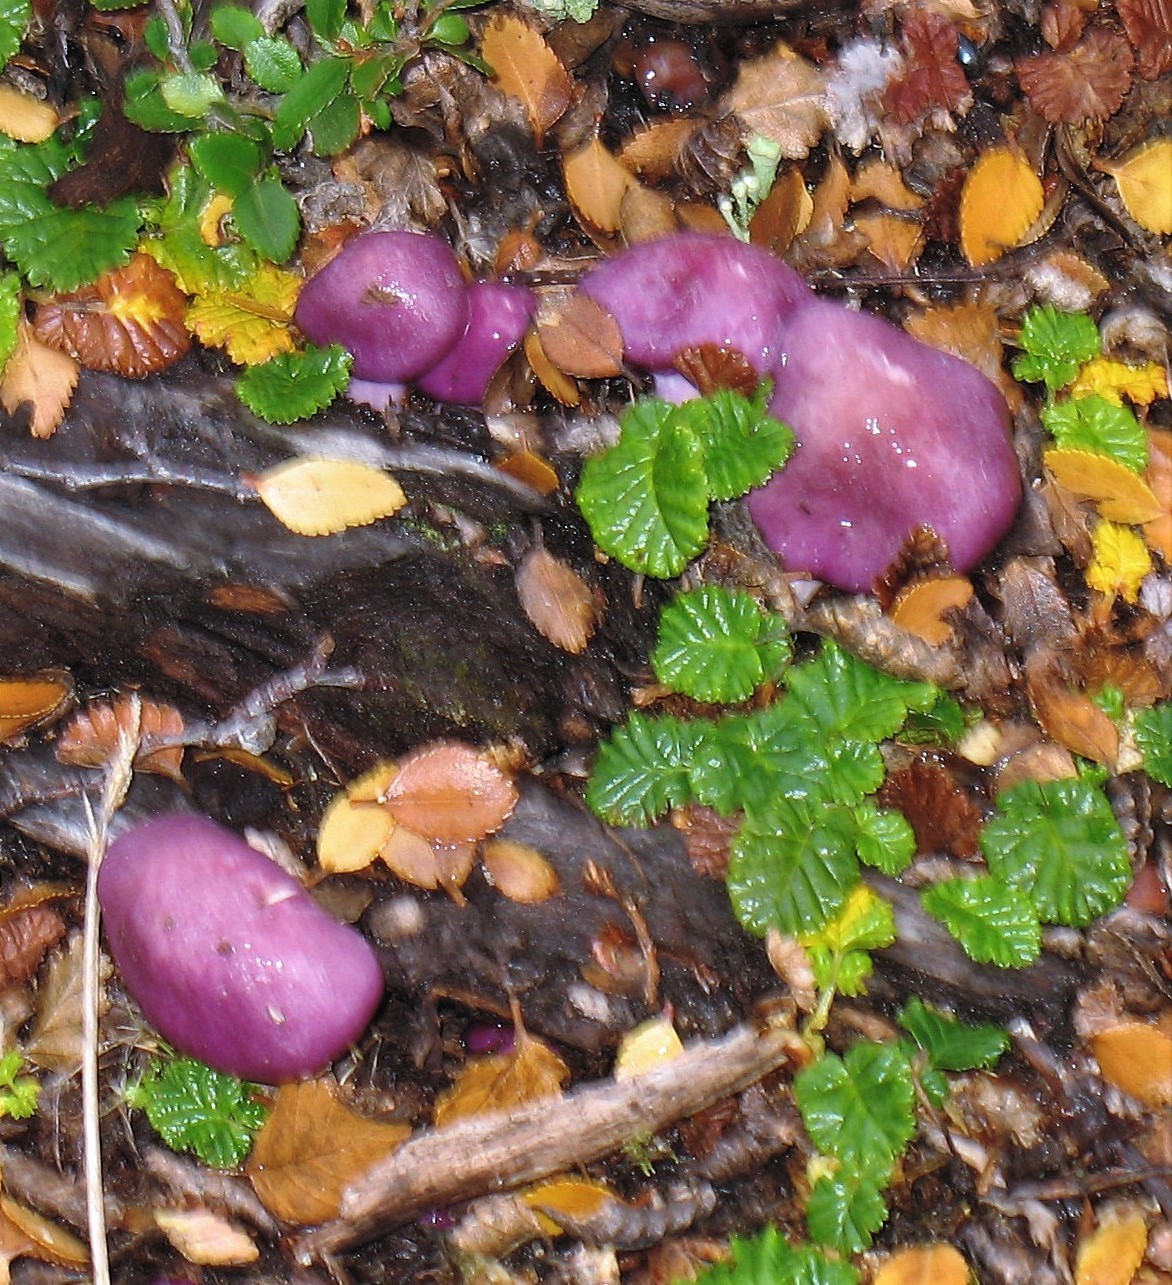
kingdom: Fungi
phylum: Basidiomycota
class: Agaricomycetes
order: Agaricales
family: Cortinariaceae
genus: Cortinarius
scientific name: Cortinarius magellanicus
